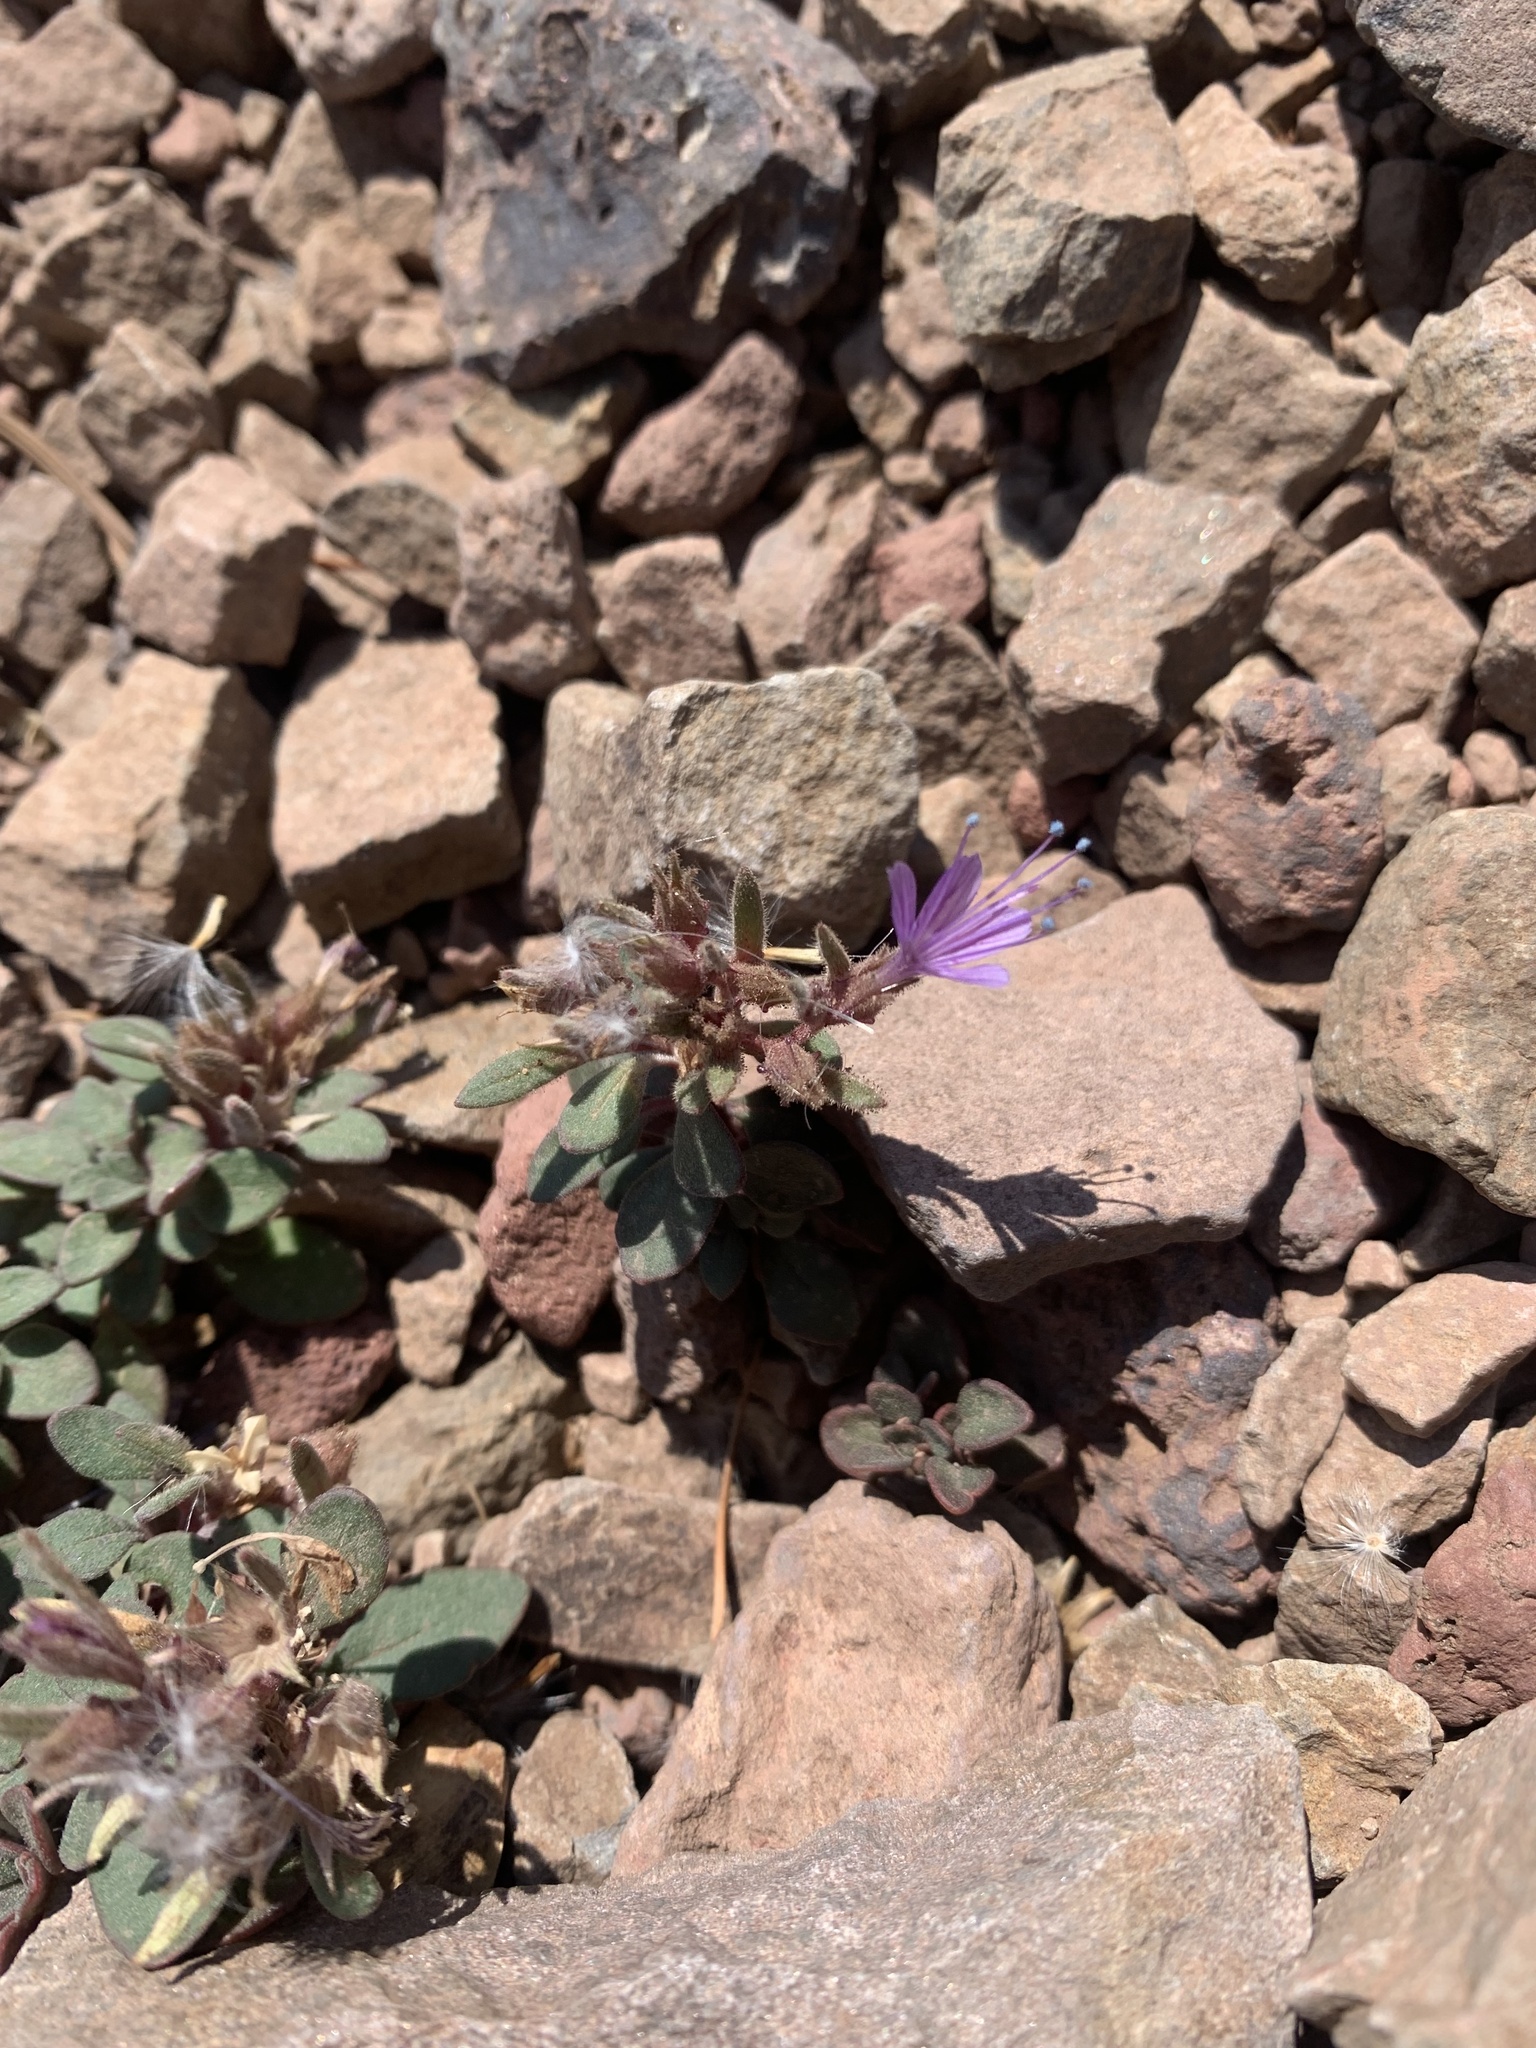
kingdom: Plantae
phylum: Tracheophyta
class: Magnoliopsida
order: Ericales
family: Polemoniaceae
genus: Collomia
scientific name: Collomia debilis
